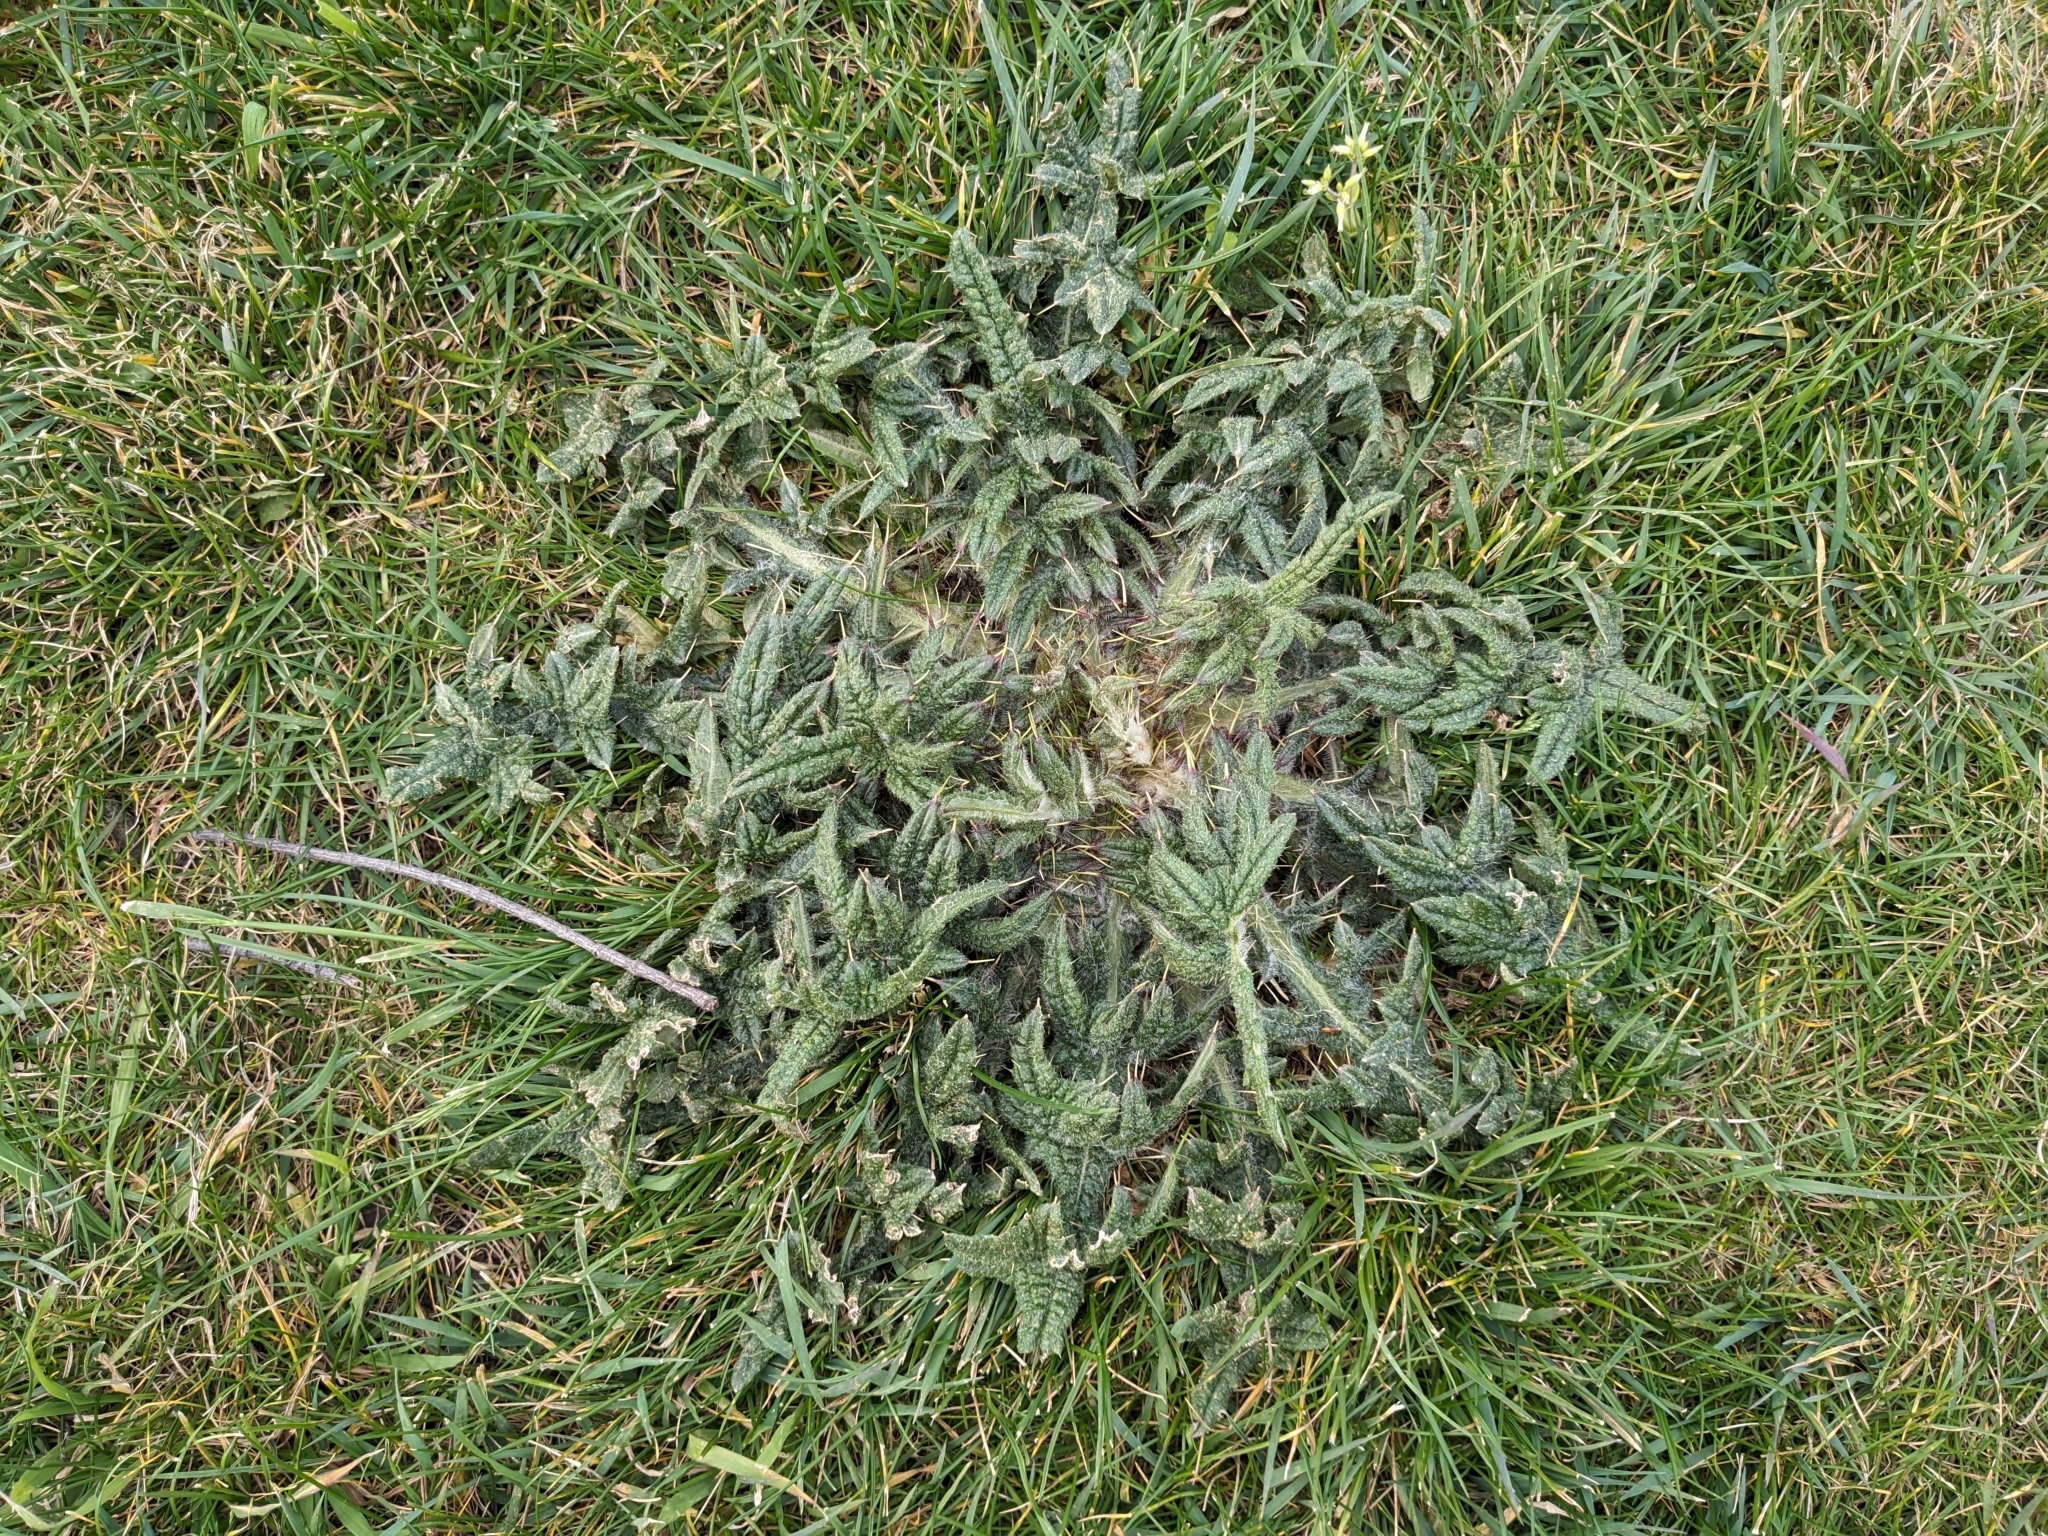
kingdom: Plantae
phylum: Tracheophyta
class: Magnoliopsida
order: Asterales
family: Asteraceae
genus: Cirsium
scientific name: Cirsium vulgare
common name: Bull thistle
